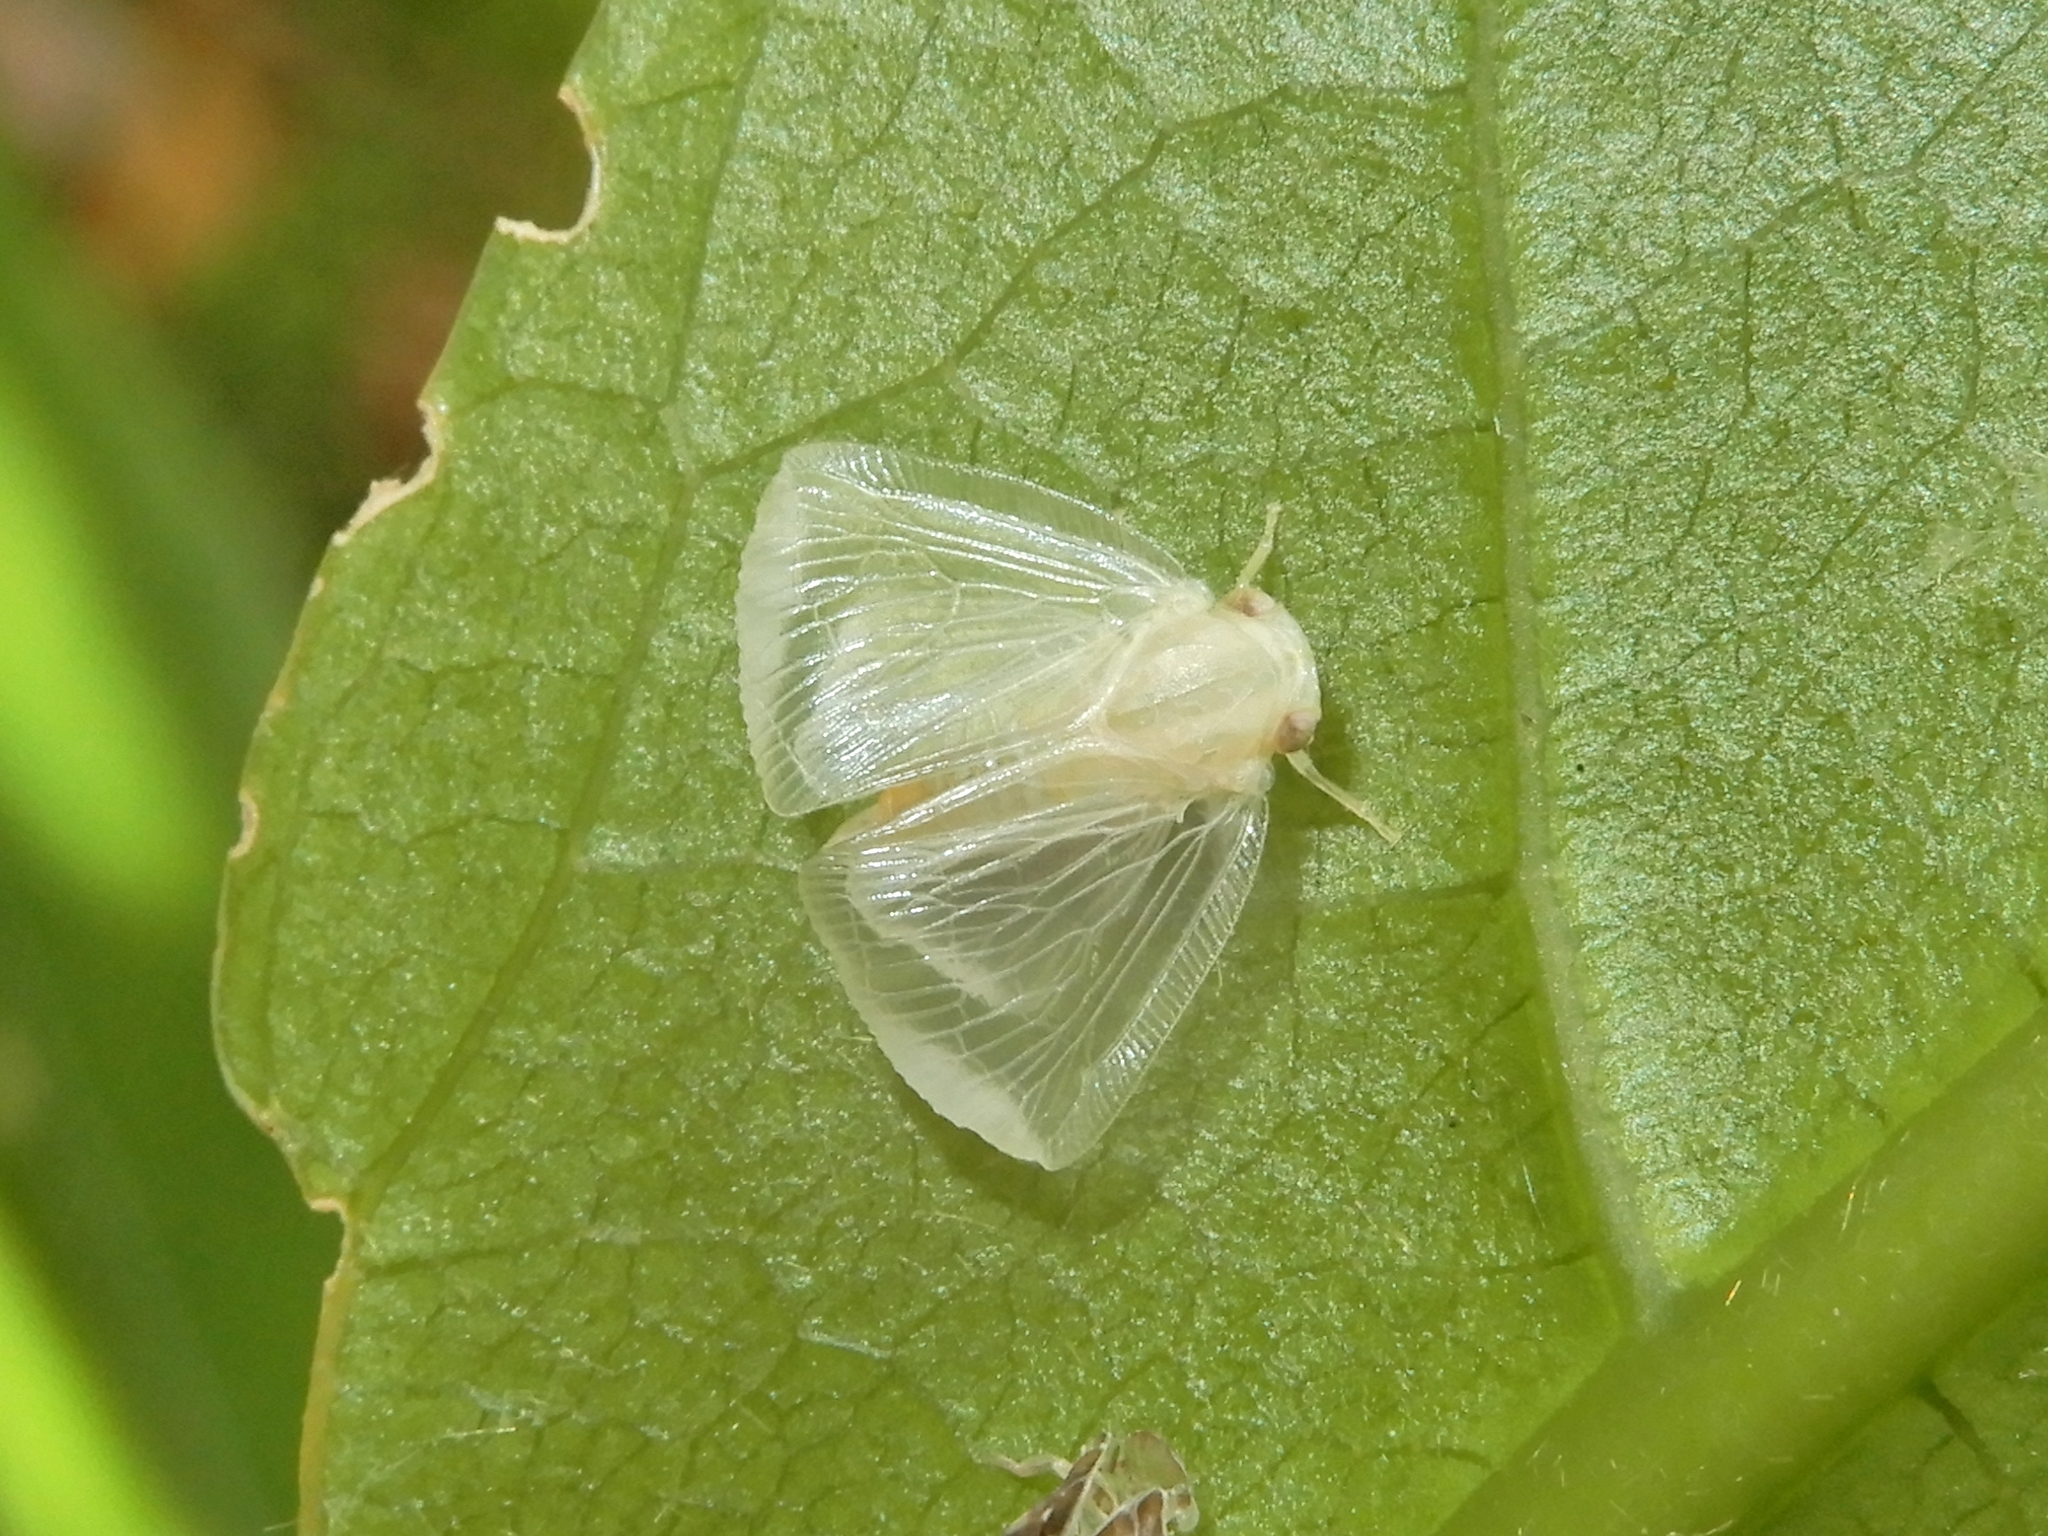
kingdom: Animalia
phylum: Arthropoda
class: Insecta
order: Hemiptera
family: Ricaniidae
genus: Scolypopa
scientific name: Scolypopa australis
